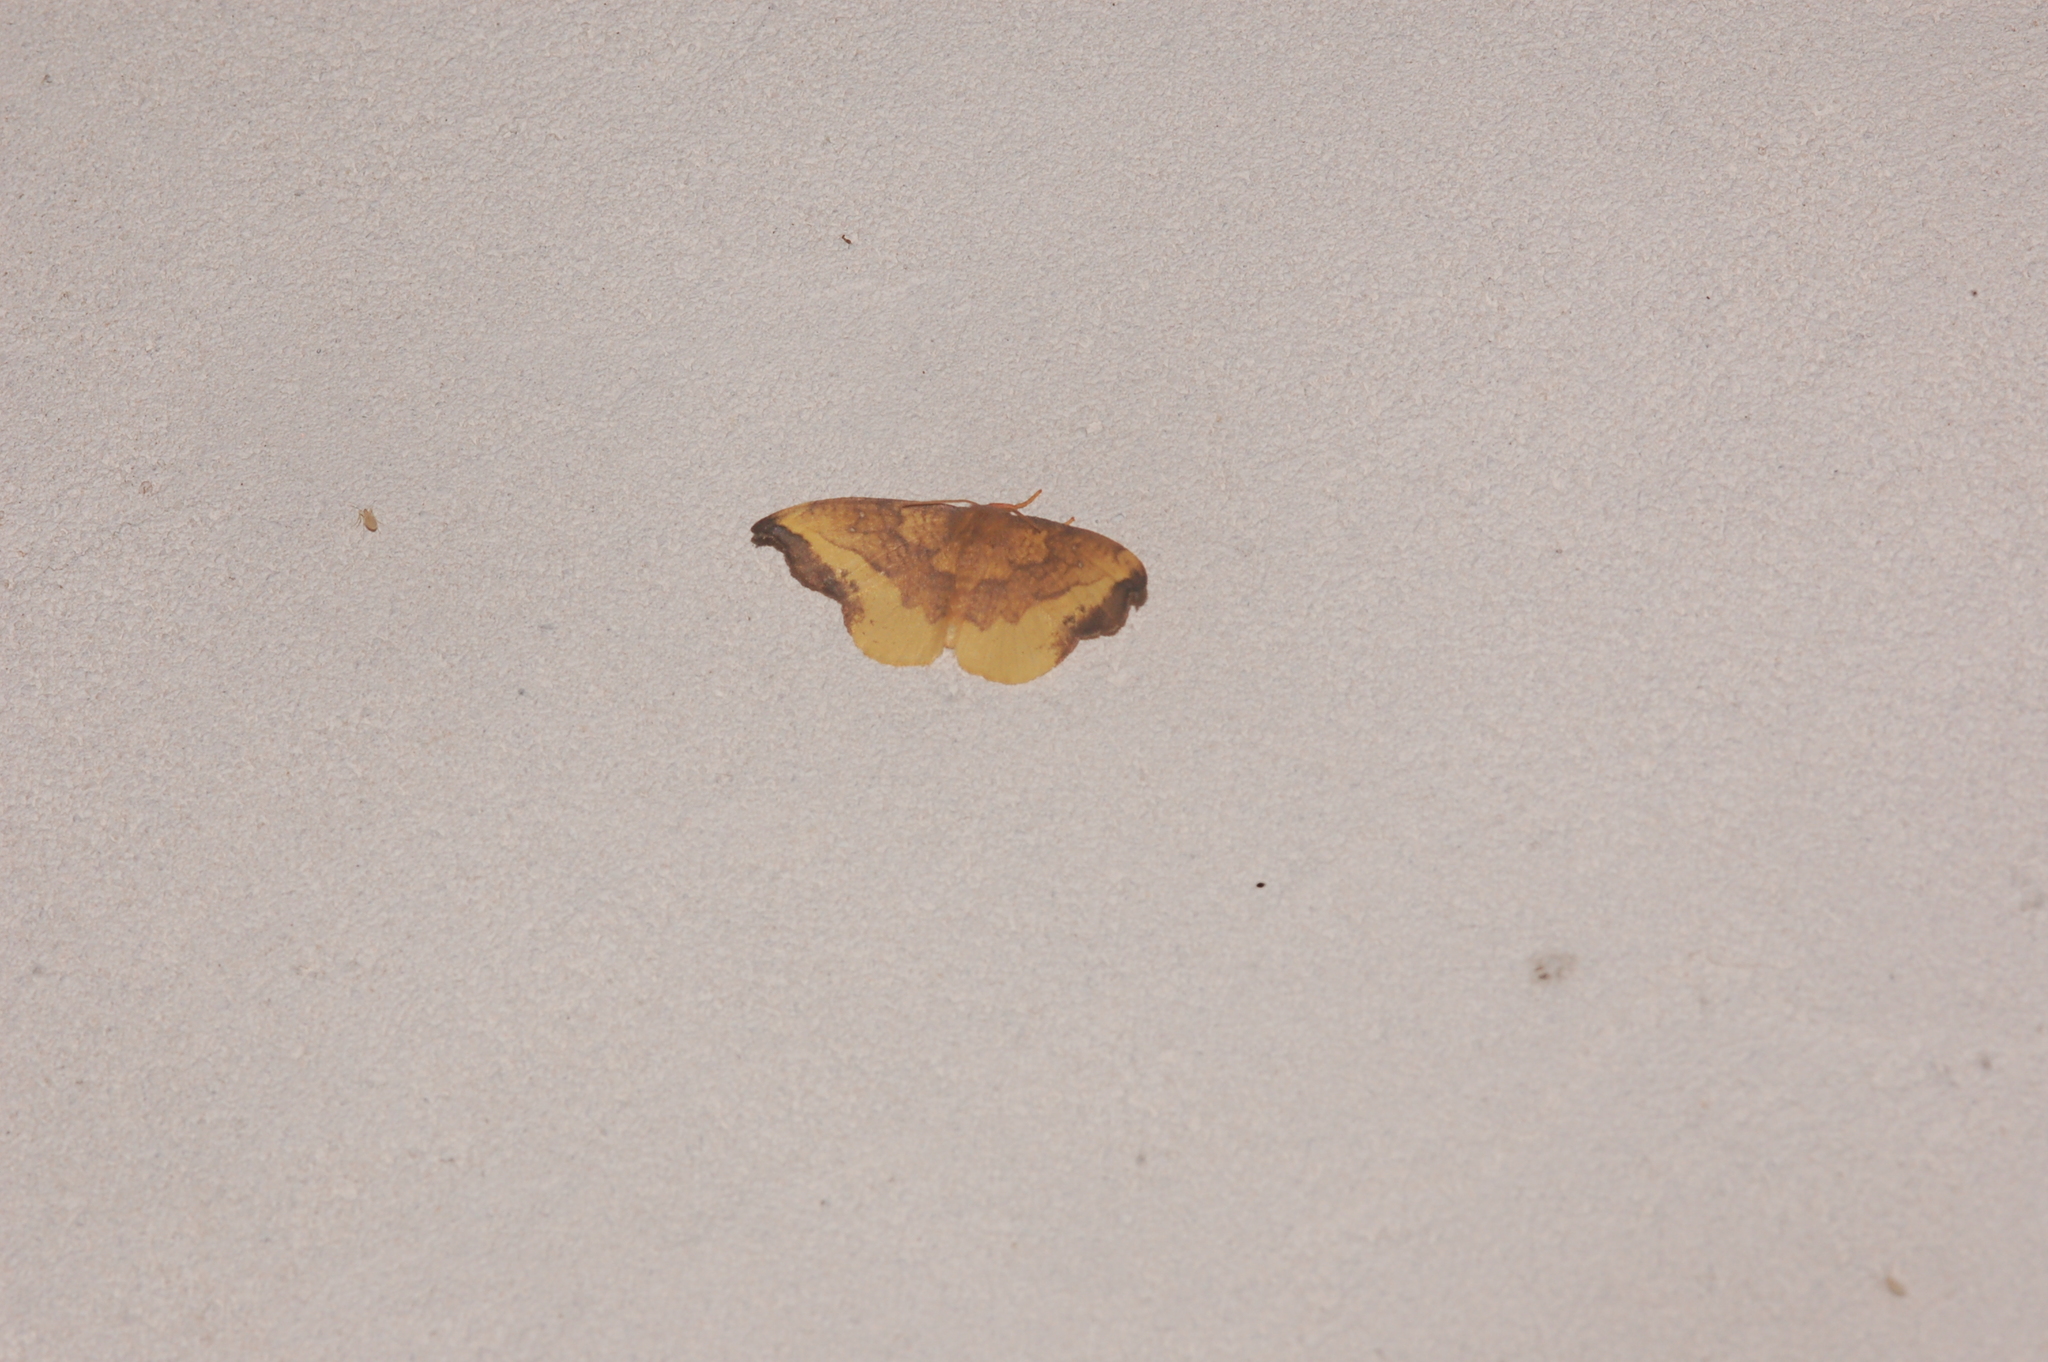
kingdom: Animalia
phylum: Arthropoda
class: Insecta
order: Lepidoptera
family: Drepanidae
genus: Oreta
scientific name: Oreta rosea
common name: Rose hooktip
